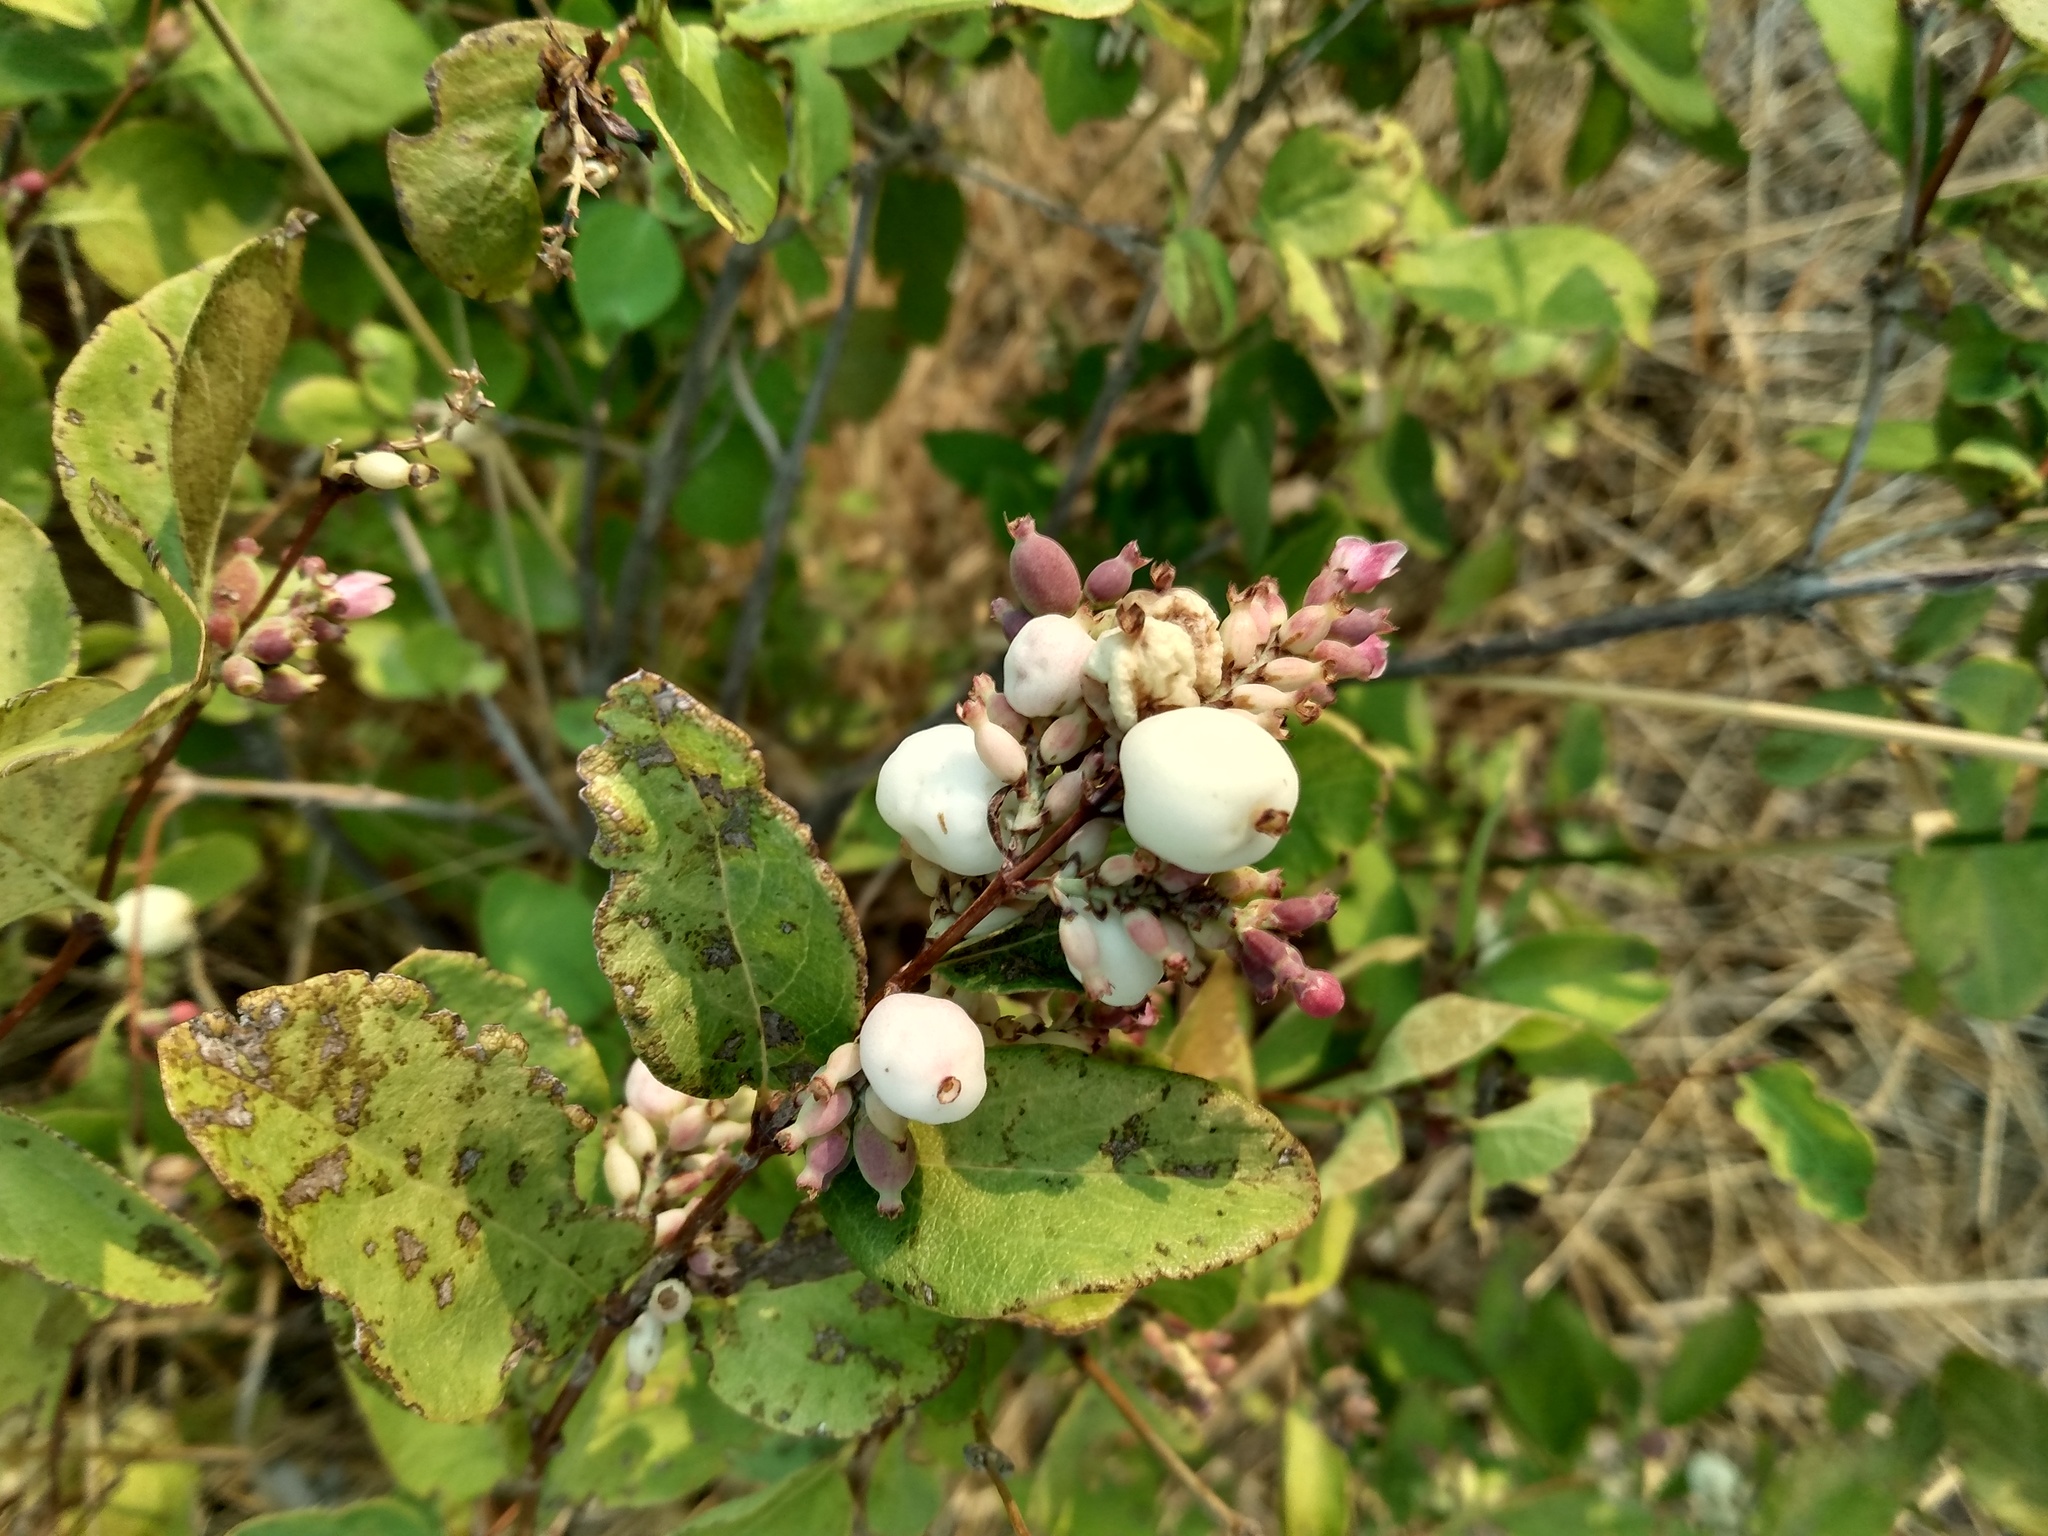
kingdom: Plantae
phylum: Tracheophyta
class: Magnoliopsida
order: Dipsacales
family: Caprifoliaceae
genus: Symphoricarpos
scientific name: Symphoricarpos albus
